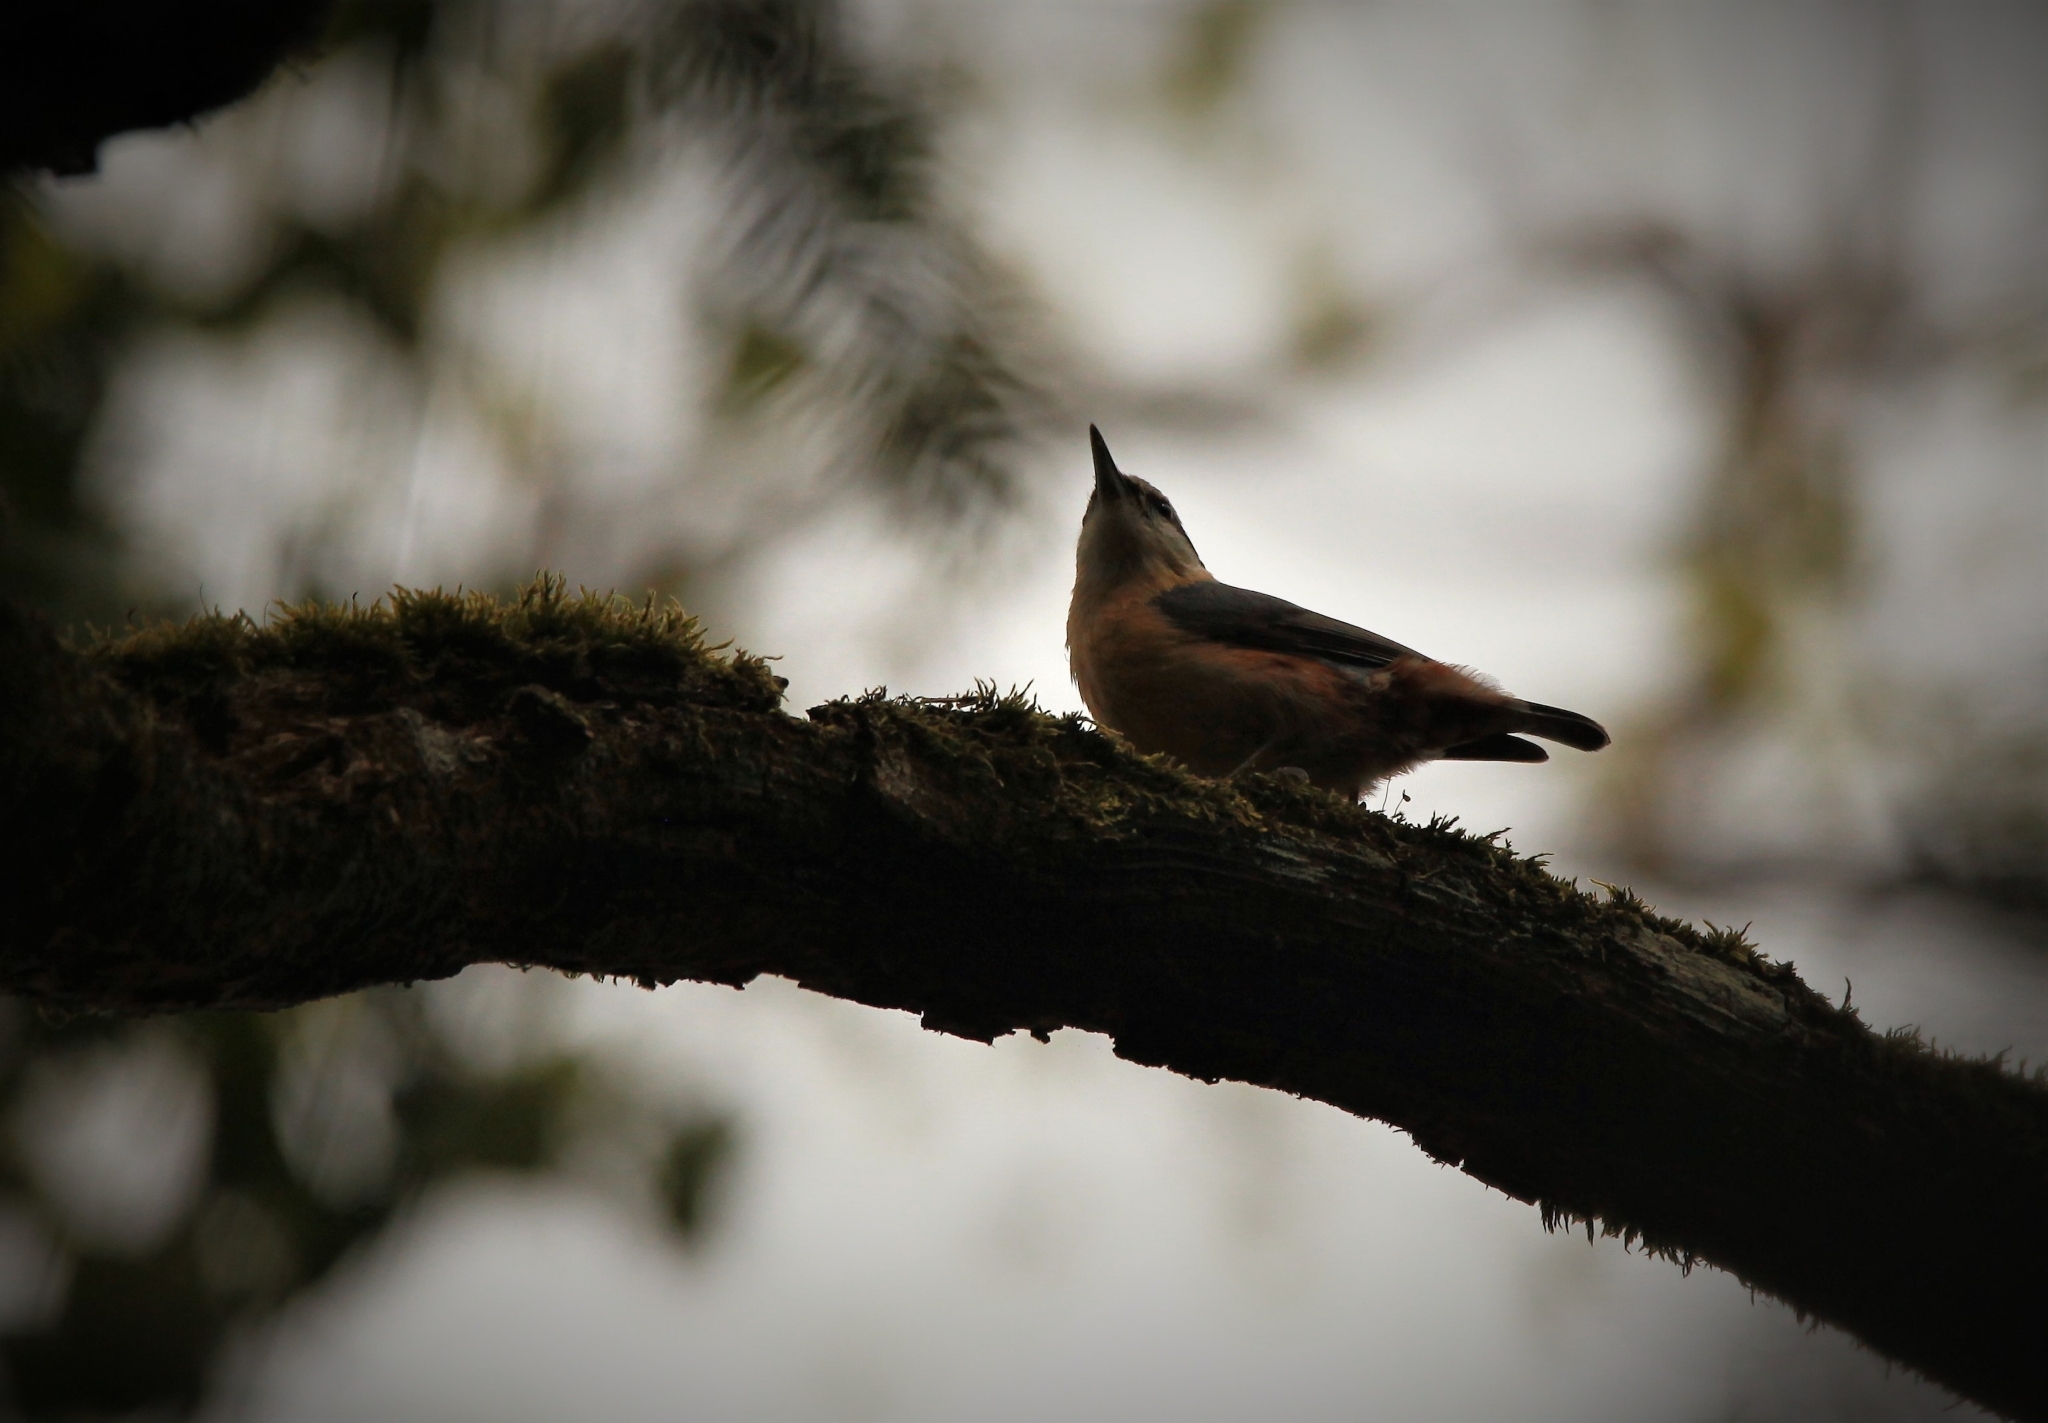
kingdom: Animalia
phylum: Chordata
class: Aves
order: Passeriformes
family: Sittidae
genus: Sitta
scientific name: Sitta europaea
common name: Eurasian nuthatch
